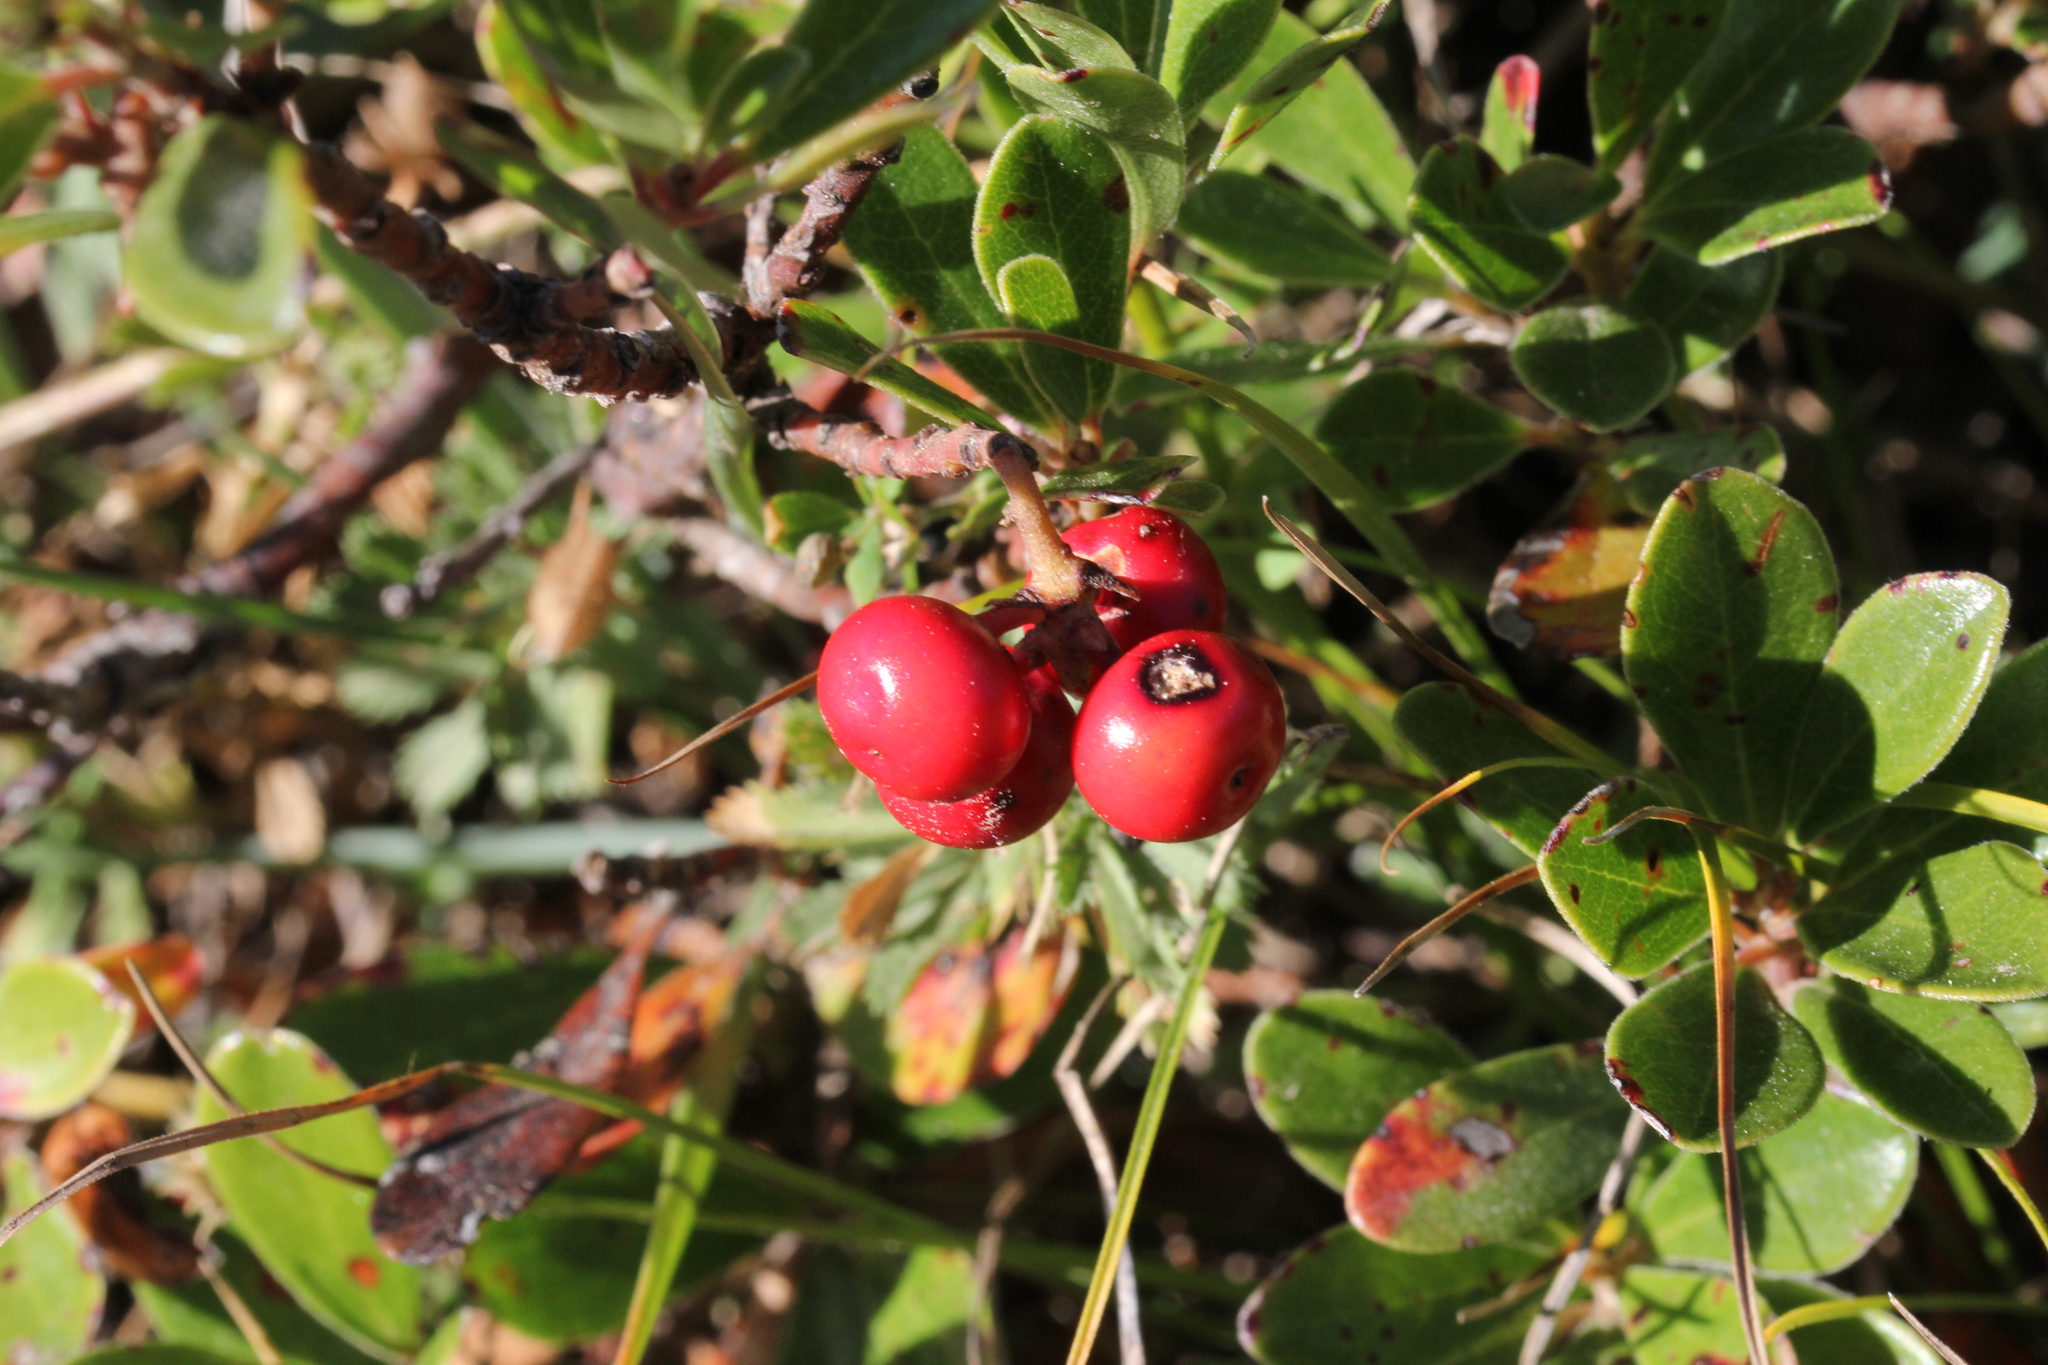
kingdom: Plantae
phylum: Tracheophyta
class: Magnoliopsida
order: Ericales
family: Ericaceae
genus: Arctostaphylos
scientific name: Arctostaphylos uva-ursi
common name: Bearberry
